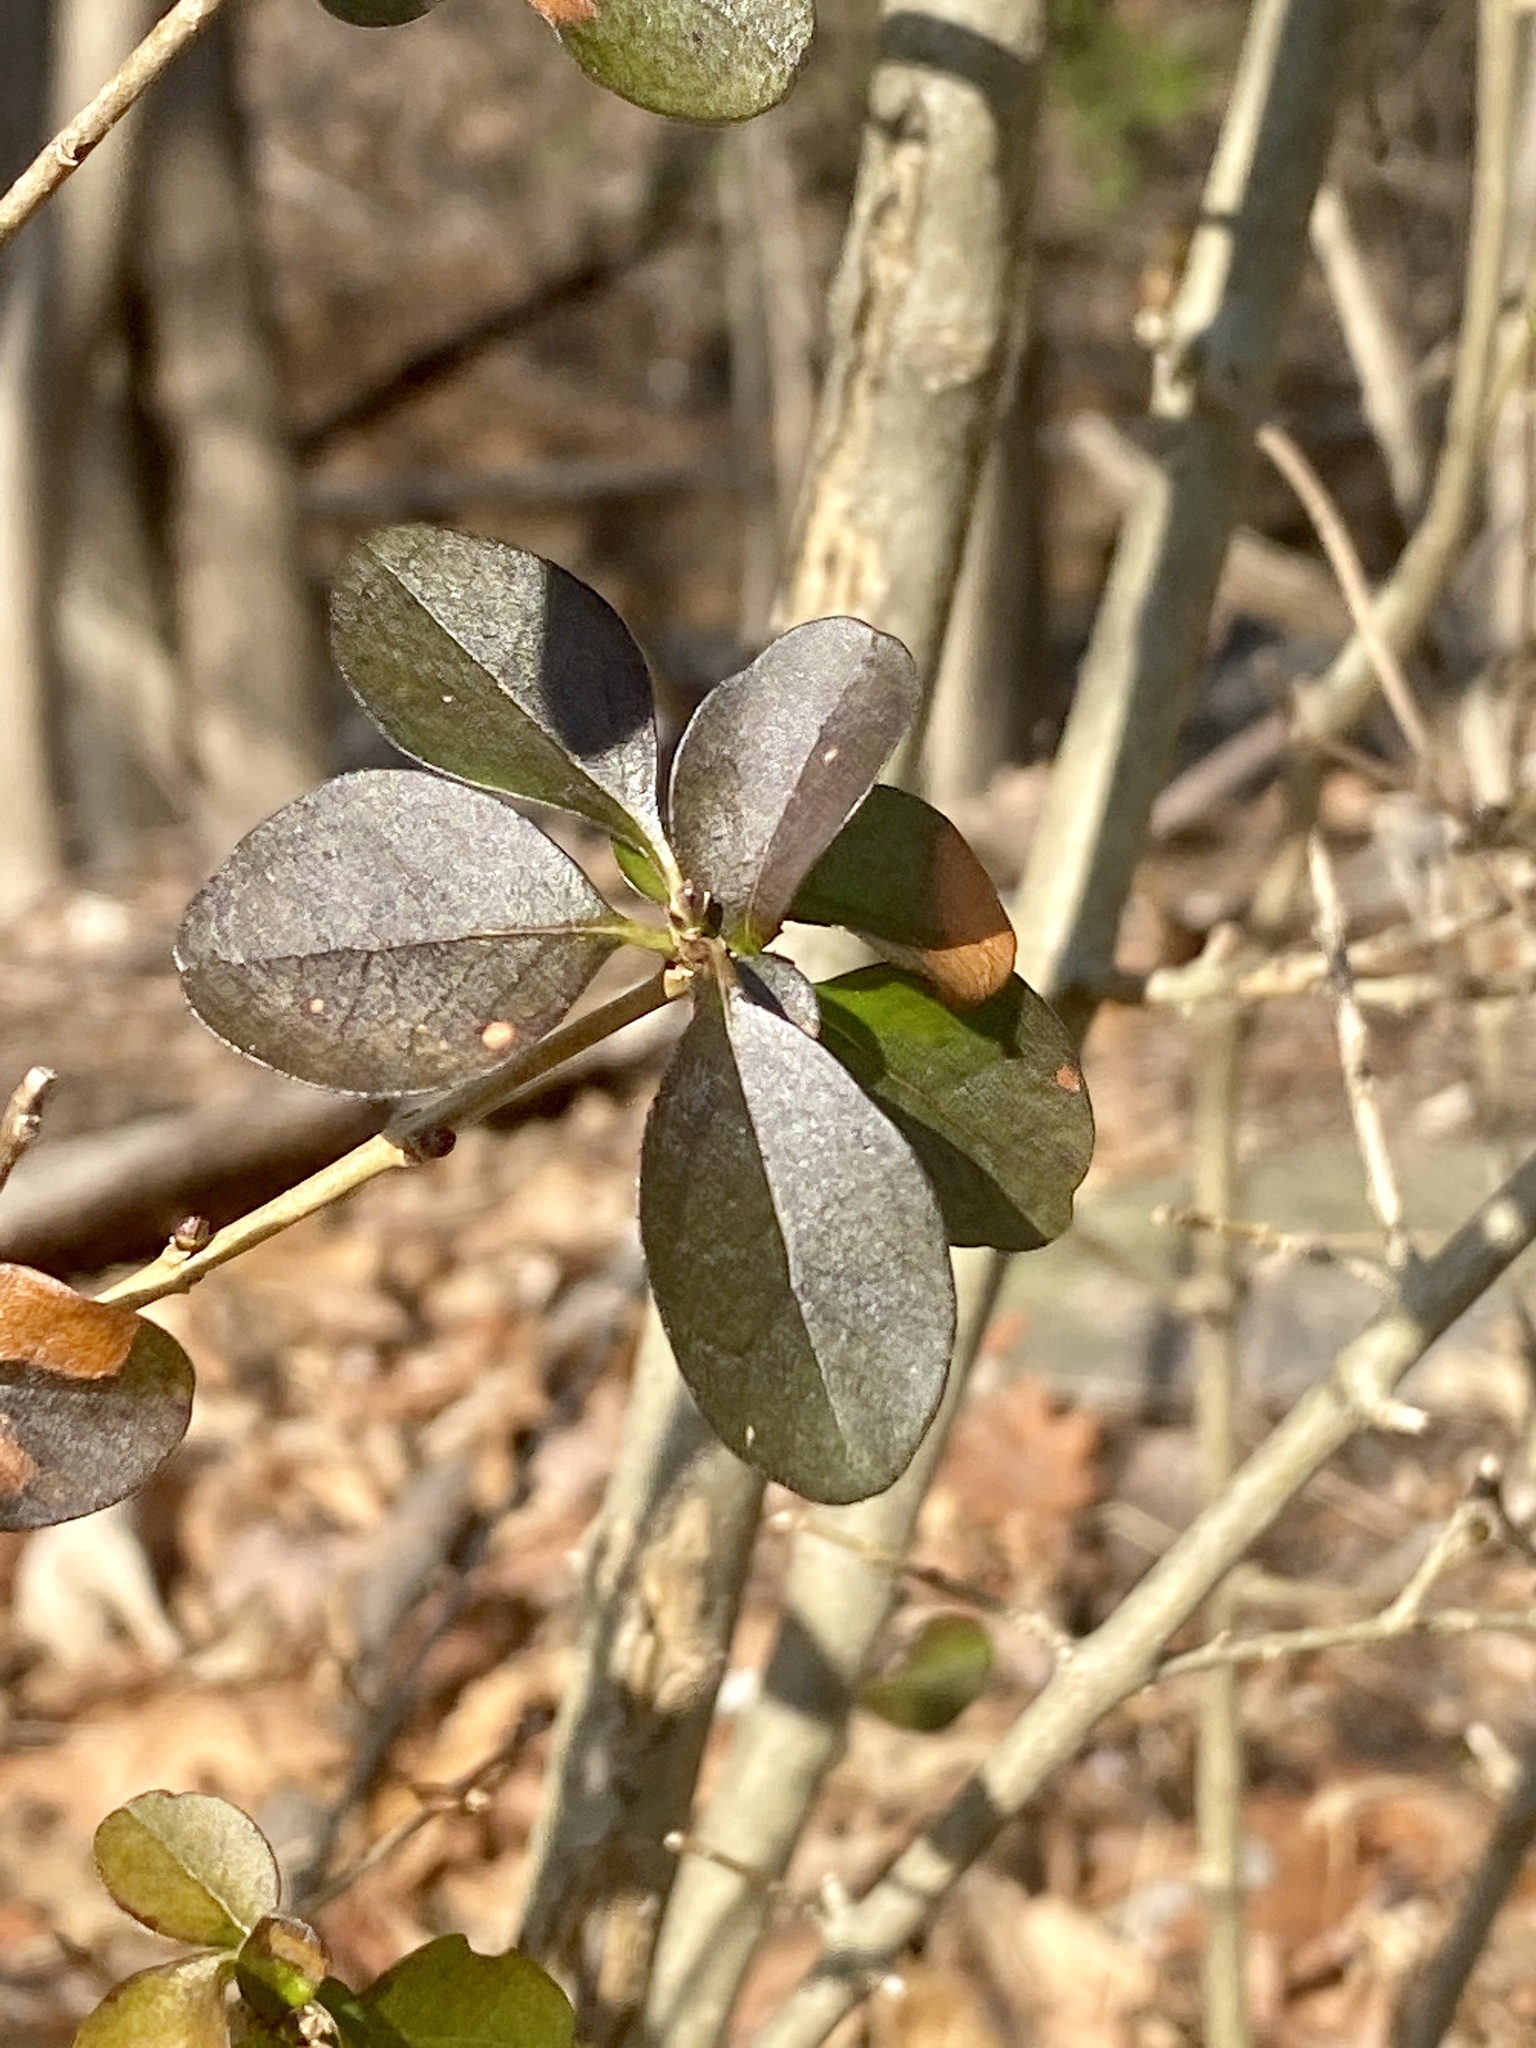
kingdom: Plantae
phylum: Tracheophyta
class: Magnoliopsida
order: Lamiales
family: Oleaceae
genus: Ligustrum
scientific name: Ligustrum obtusifolium
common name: Border privet
